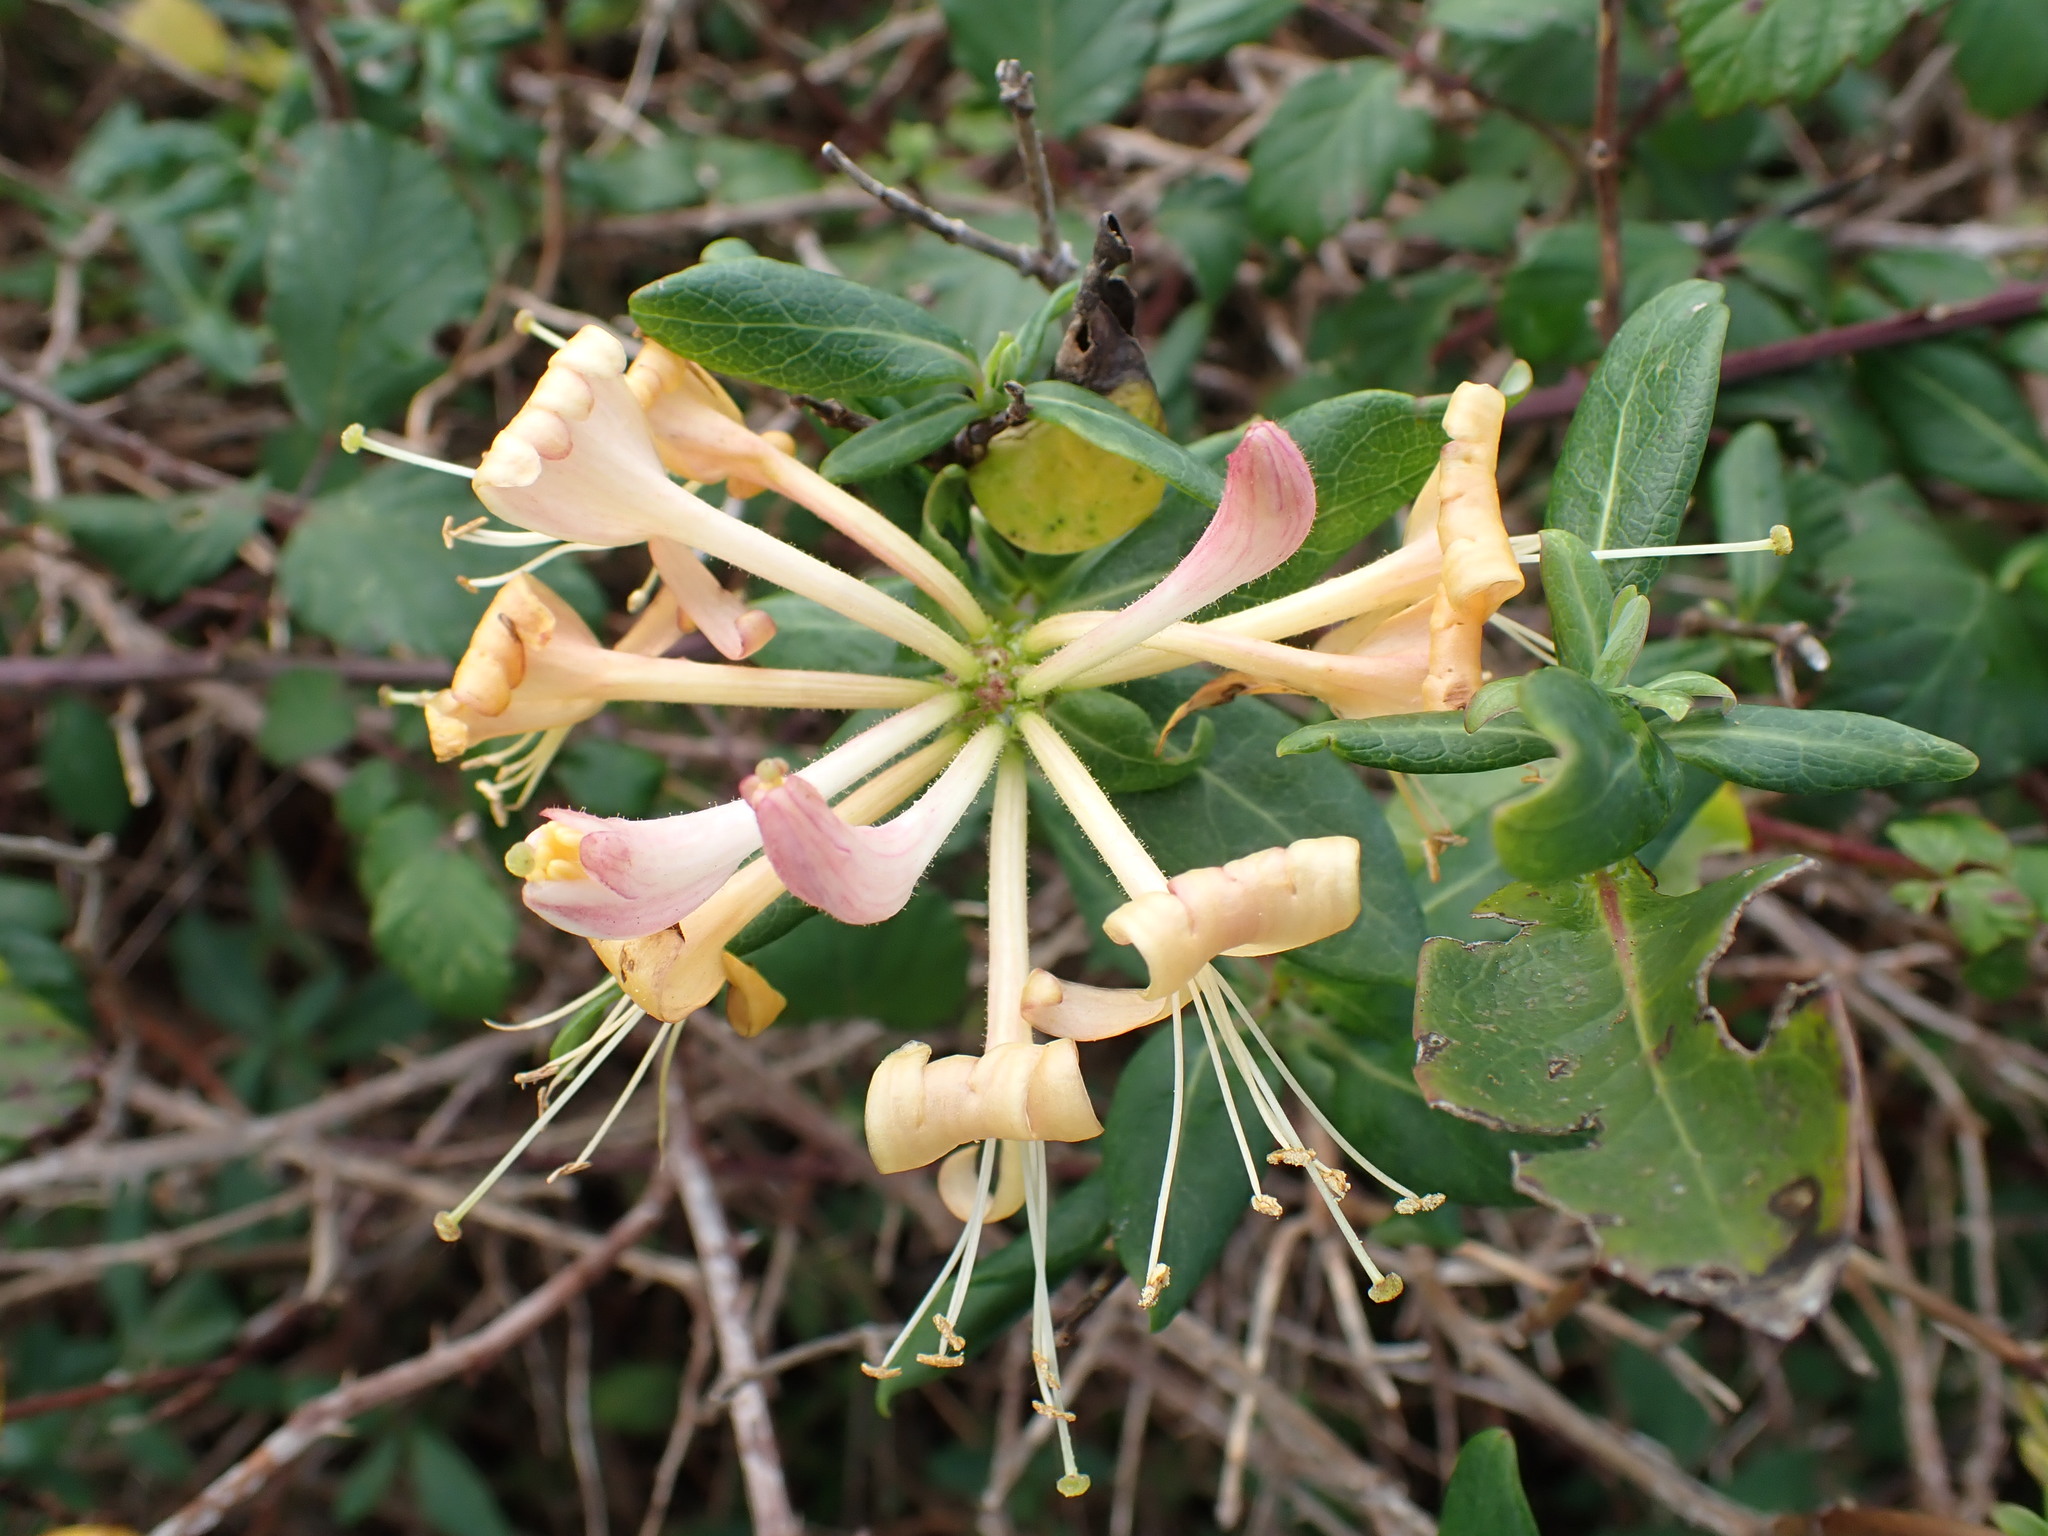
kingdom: Plantae
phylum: Tracheophyta
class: Magnoliopsida
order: Dipsacales
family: Caprifoliaceae
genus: Lonicera
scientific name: Lonicera periclymenum
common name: European honeysuckle
